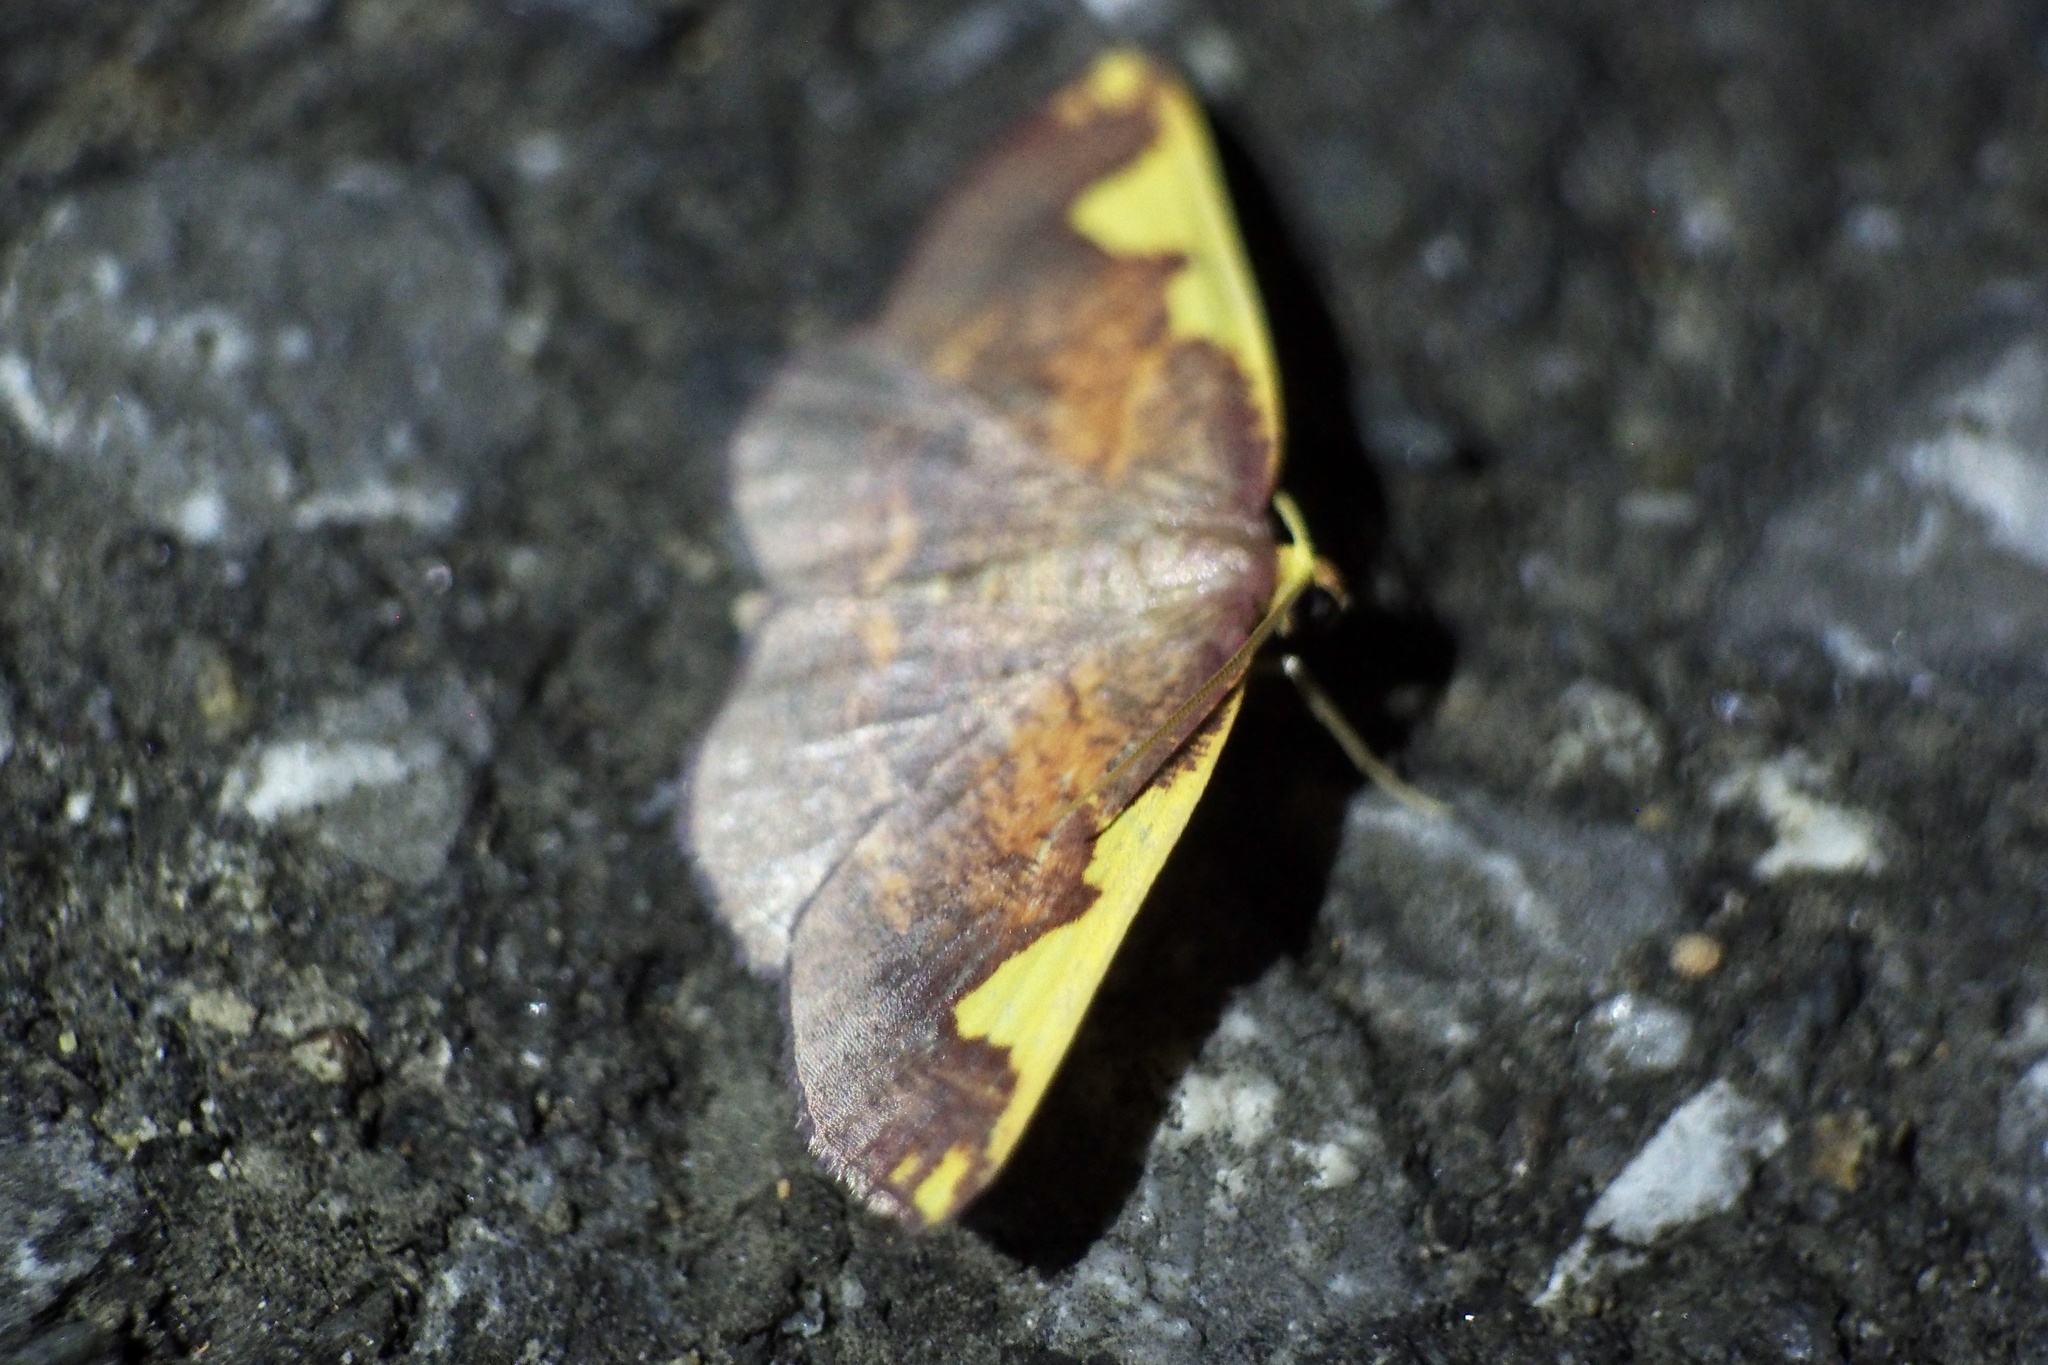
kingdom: Animalia
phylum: Arthropoda
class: Insecta
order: Lepidoptera
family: Geometridae
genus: Nothomiza
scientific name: Nothomiza formosa
